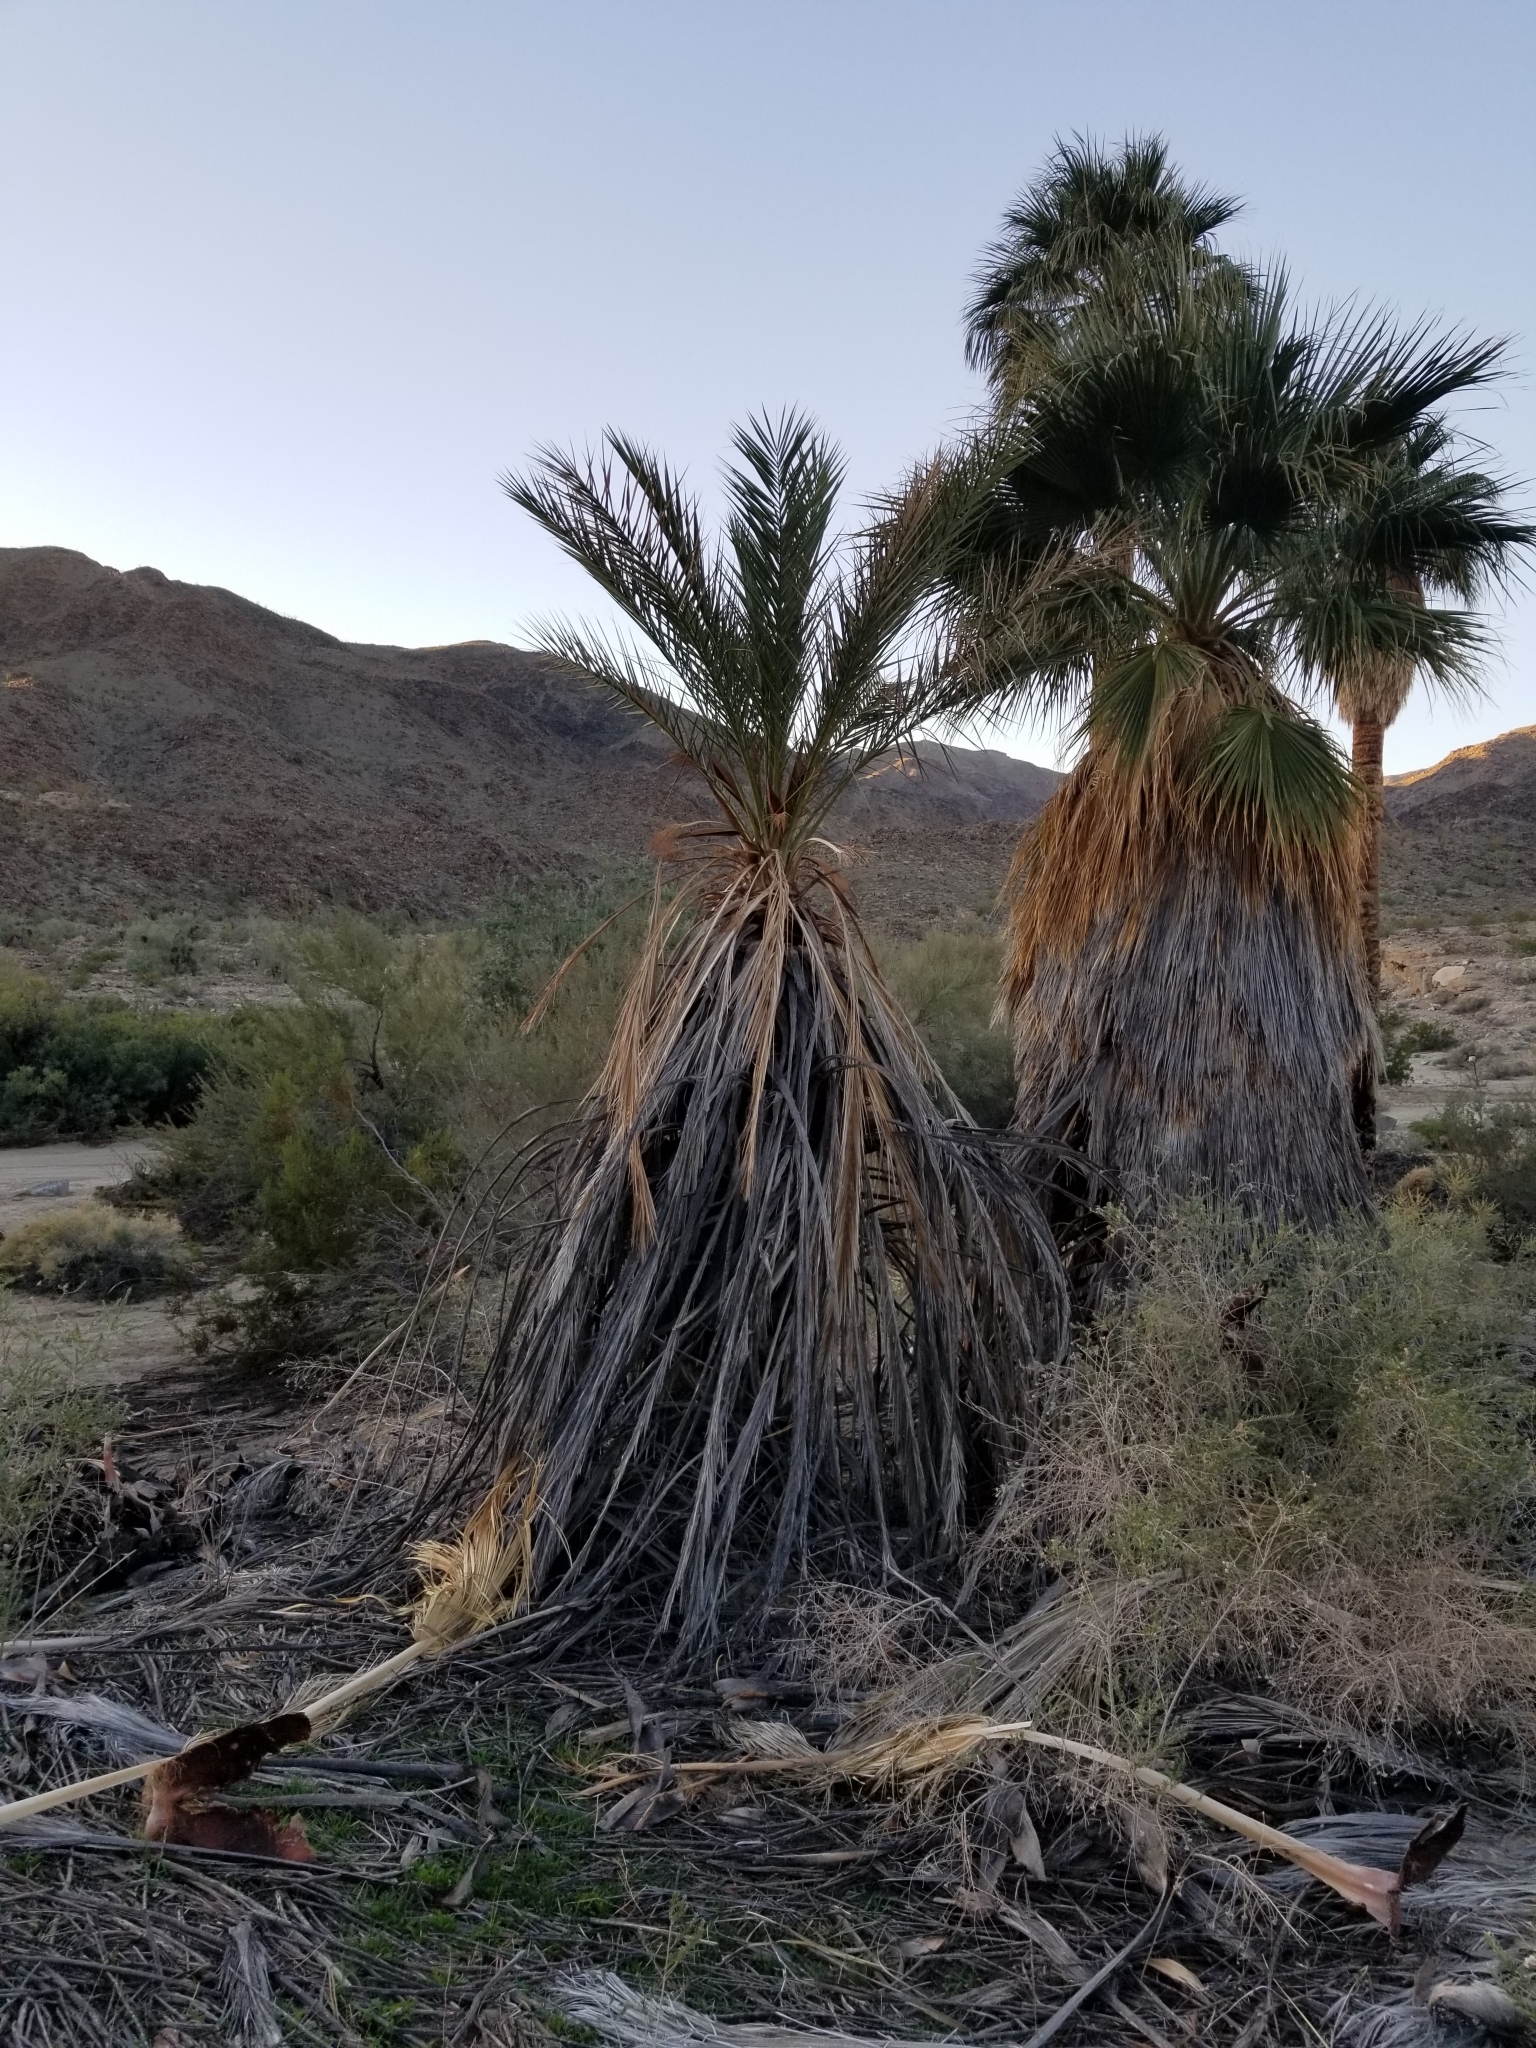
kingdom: Plantae
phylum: Tracheophyta
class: Liliopsida
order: Arecales
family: Arecaceae
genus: Phoenix
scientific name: Phoenix dactylifera
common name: Date palm
